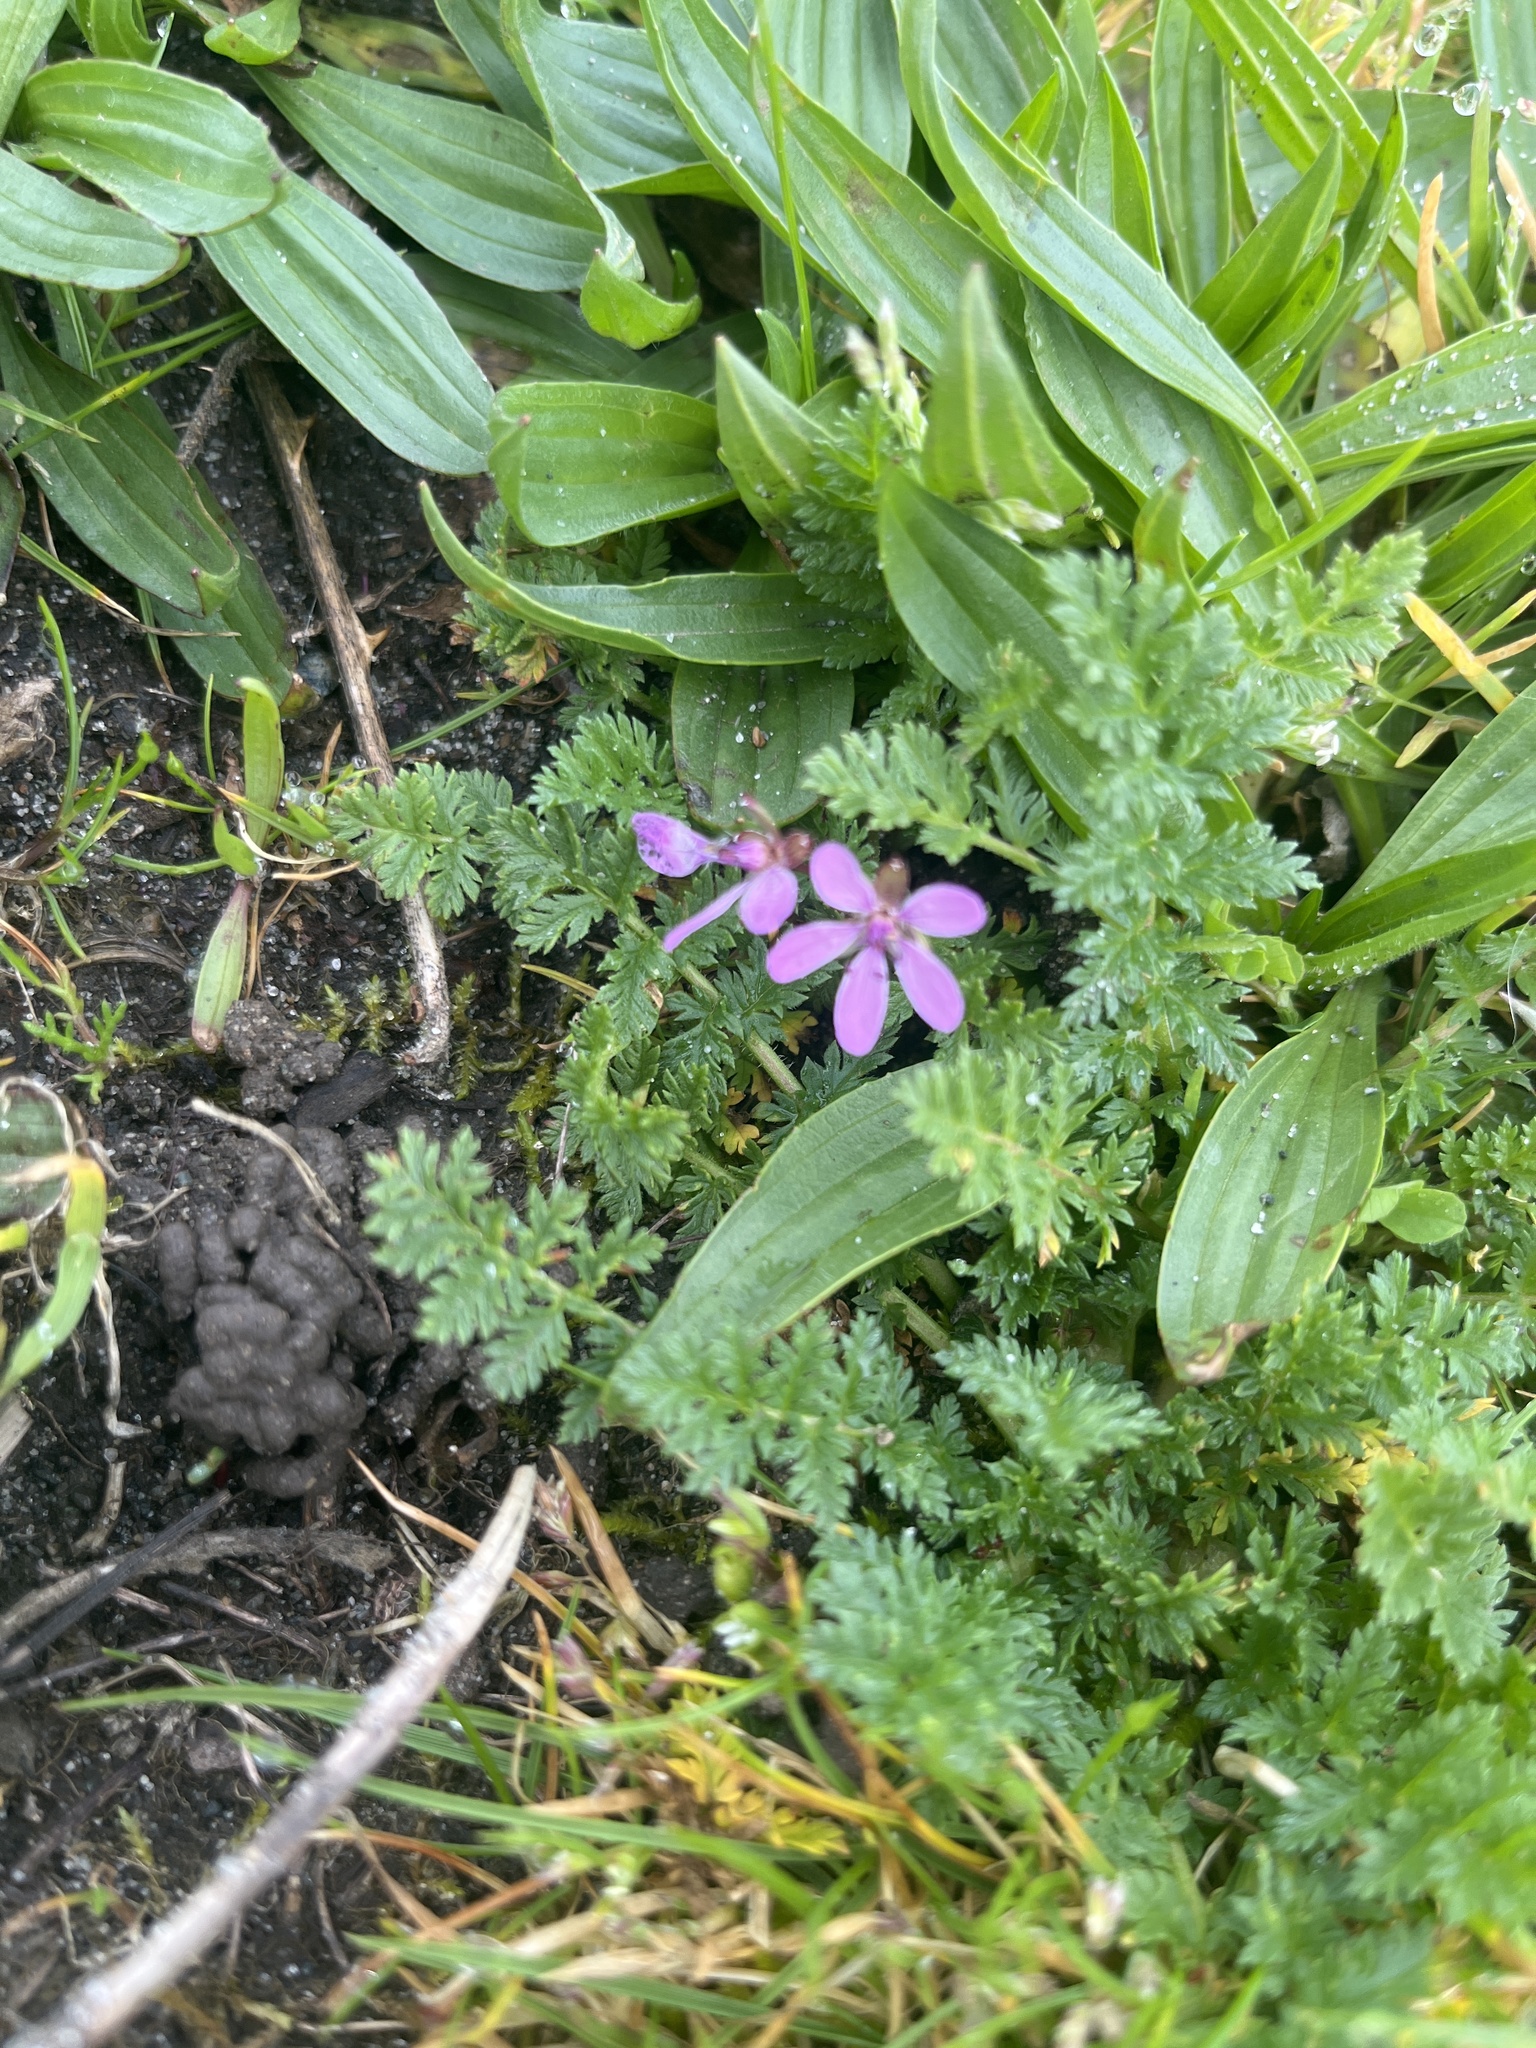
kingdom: Plantae
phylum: Tracheophyta
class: Magnoliopsida
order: Geraniales
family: Geraniaceae
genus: Erodium
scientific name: Erodium cicutarium
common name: Common stork's-bill
